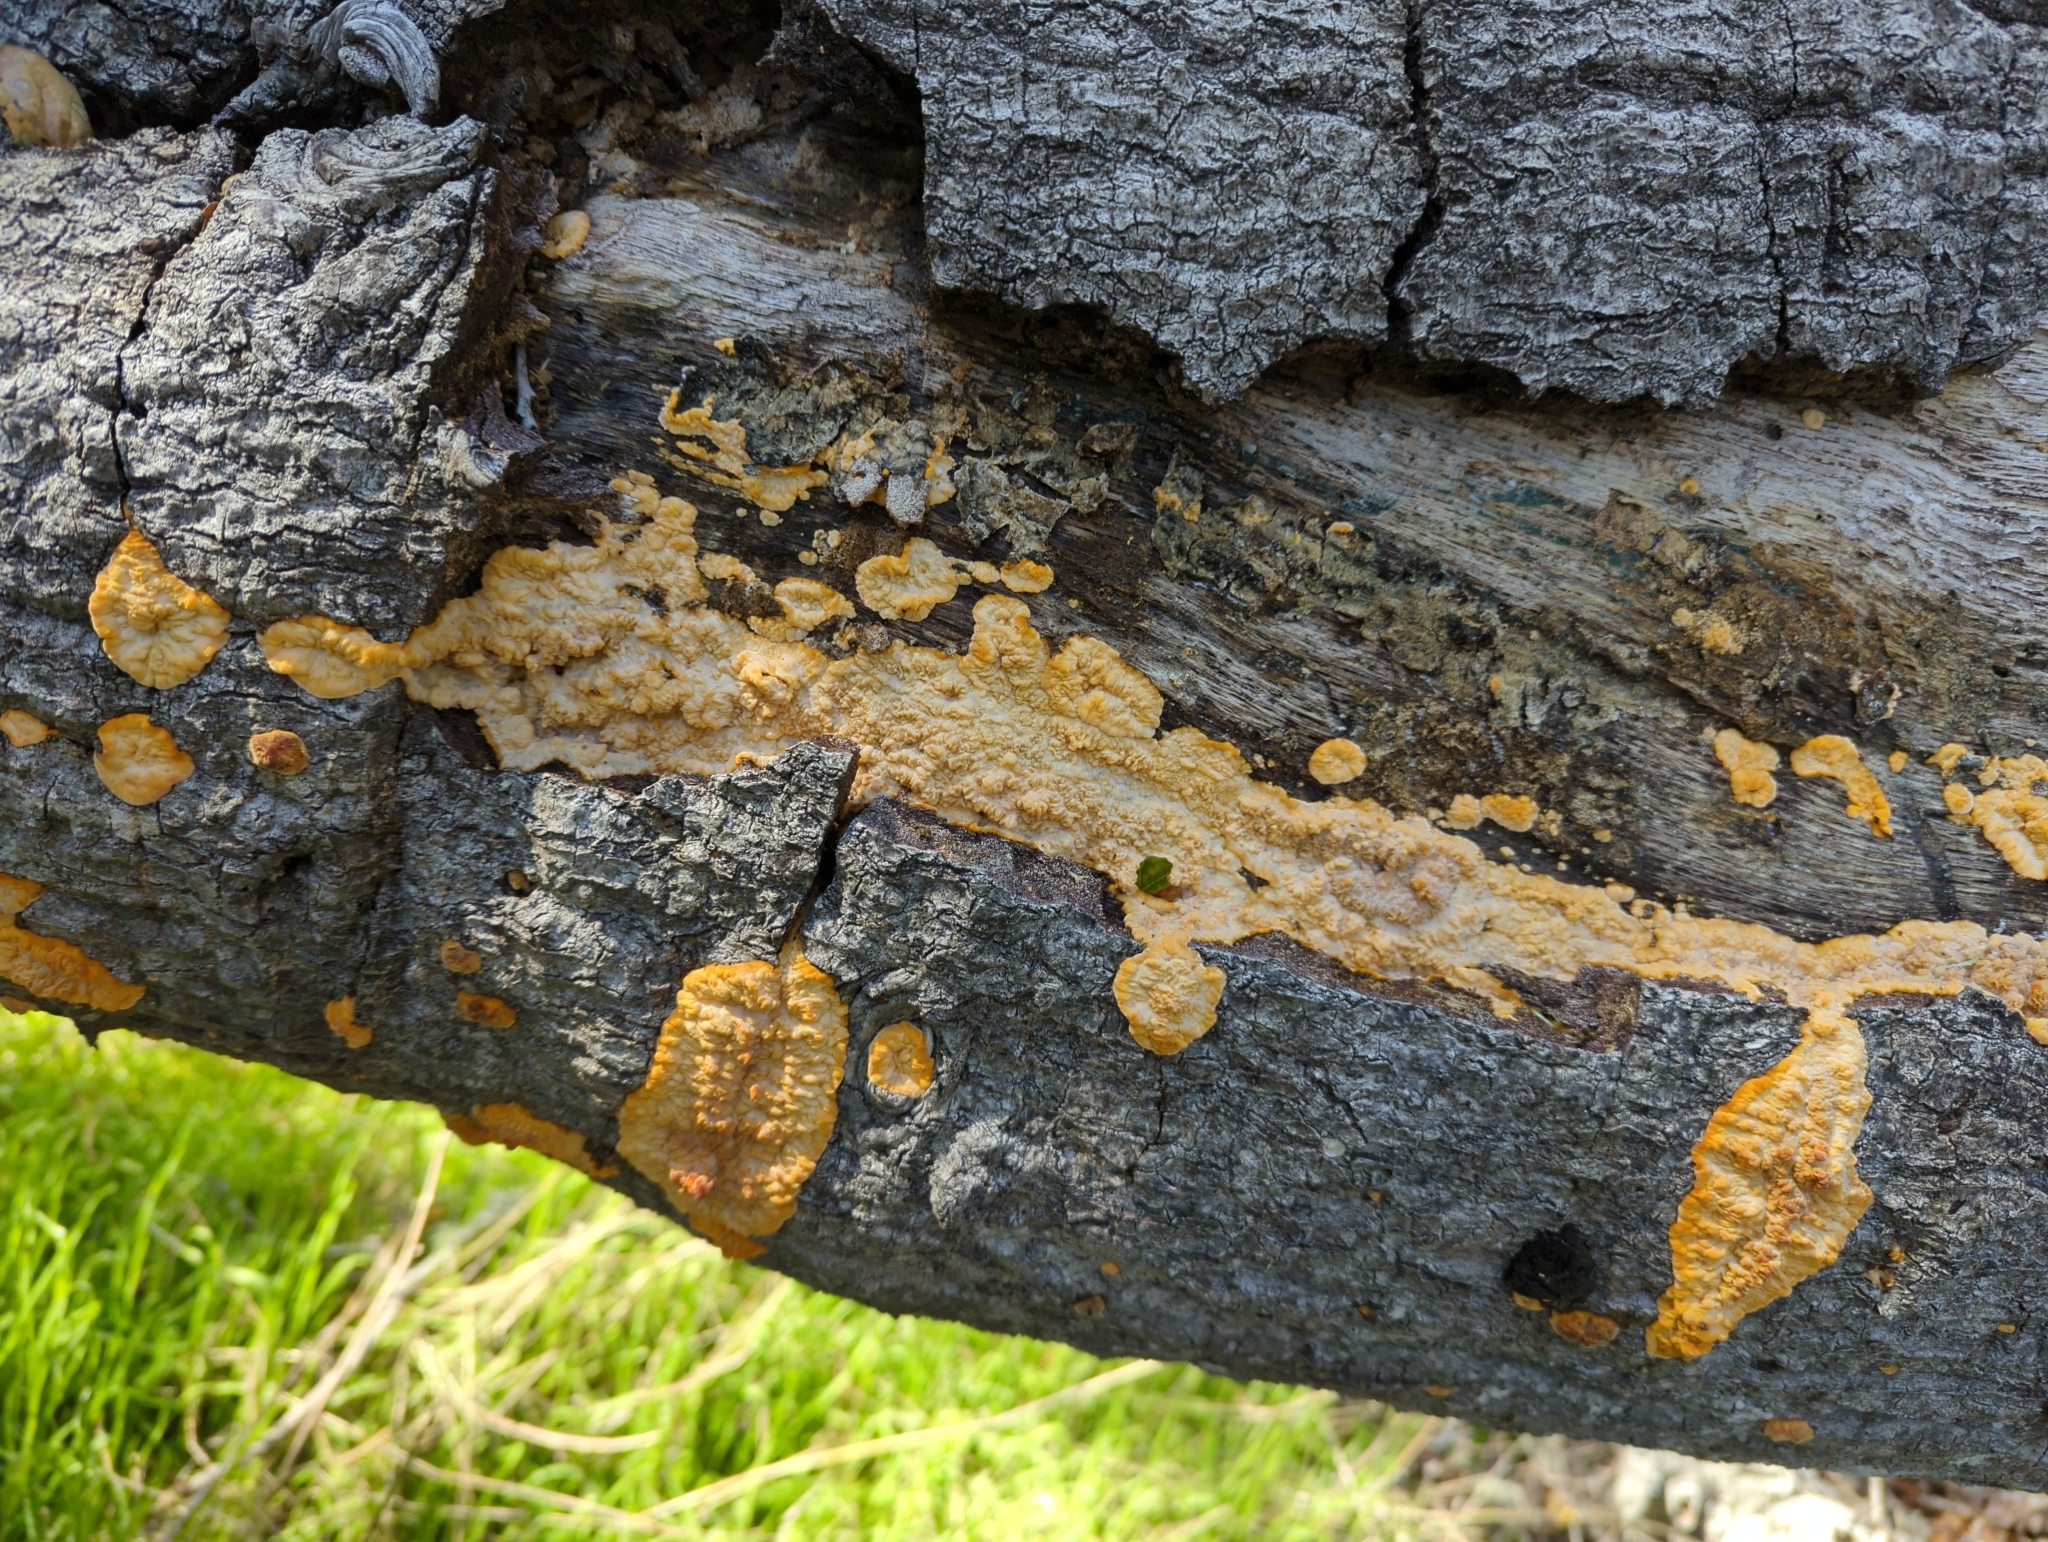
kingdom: Fungi
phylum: Basidiomycota
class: Agaricomycetes
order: Polyporales
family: Meruliaceae
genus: Phlebia
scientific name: Phlebia radiata
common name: Wrinkled crust
